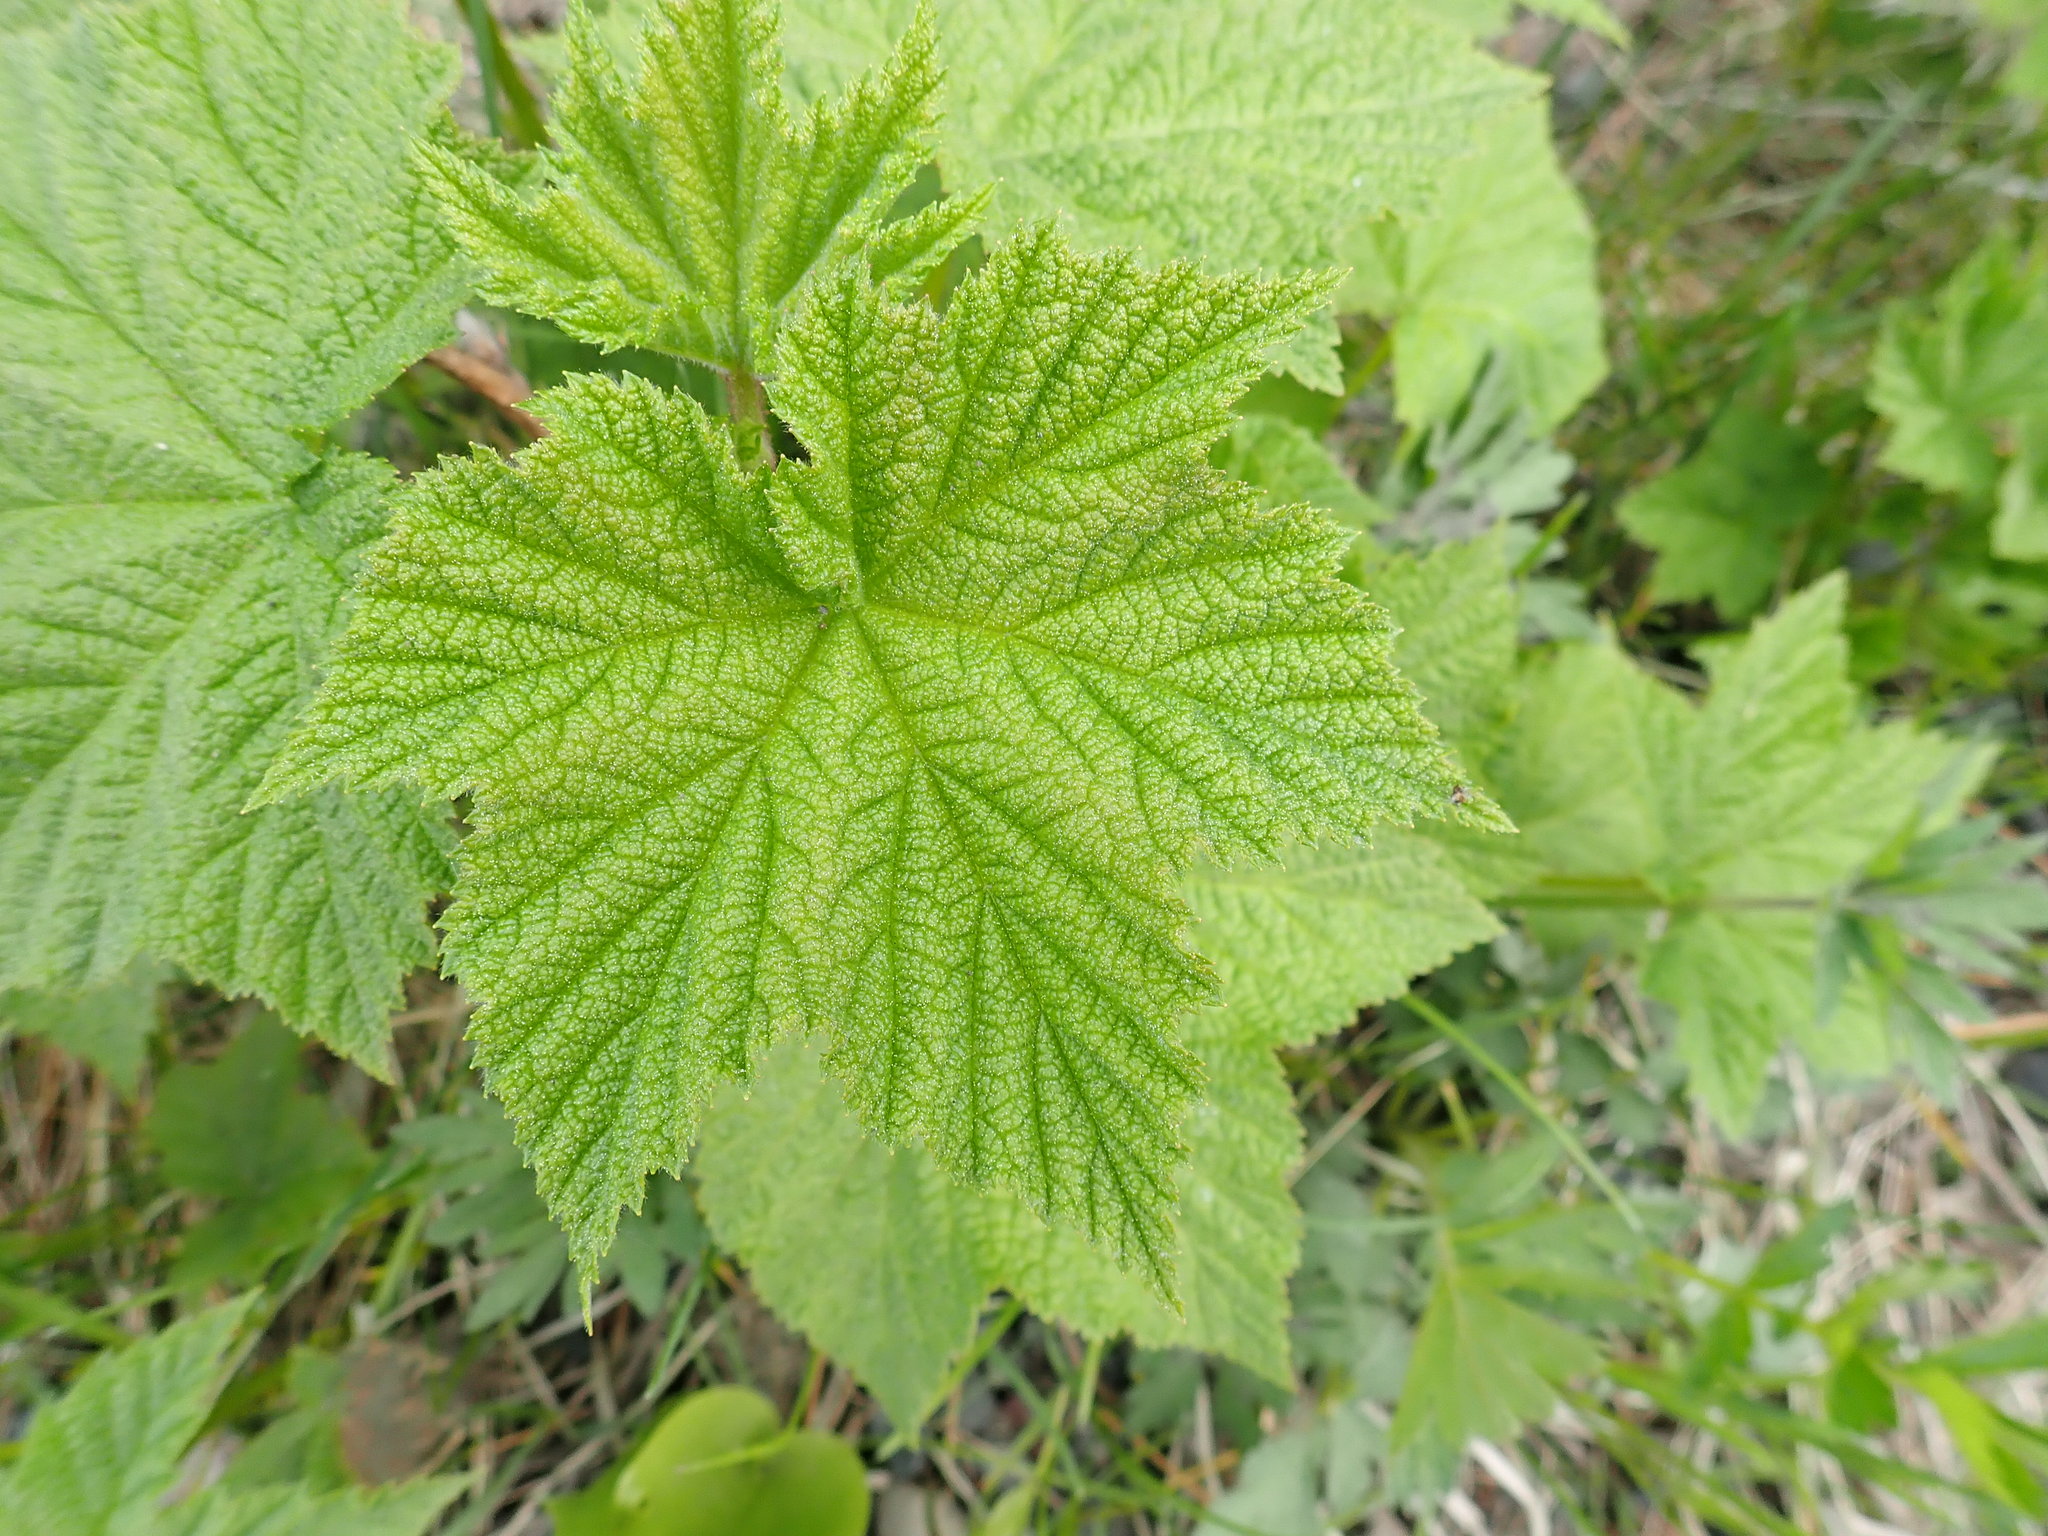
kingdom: Plantae
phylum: Tracheophyta
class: Magnoliopsida
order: Rosales
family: Rosaceae
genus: Rubus
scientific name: Rubus parviflorus
